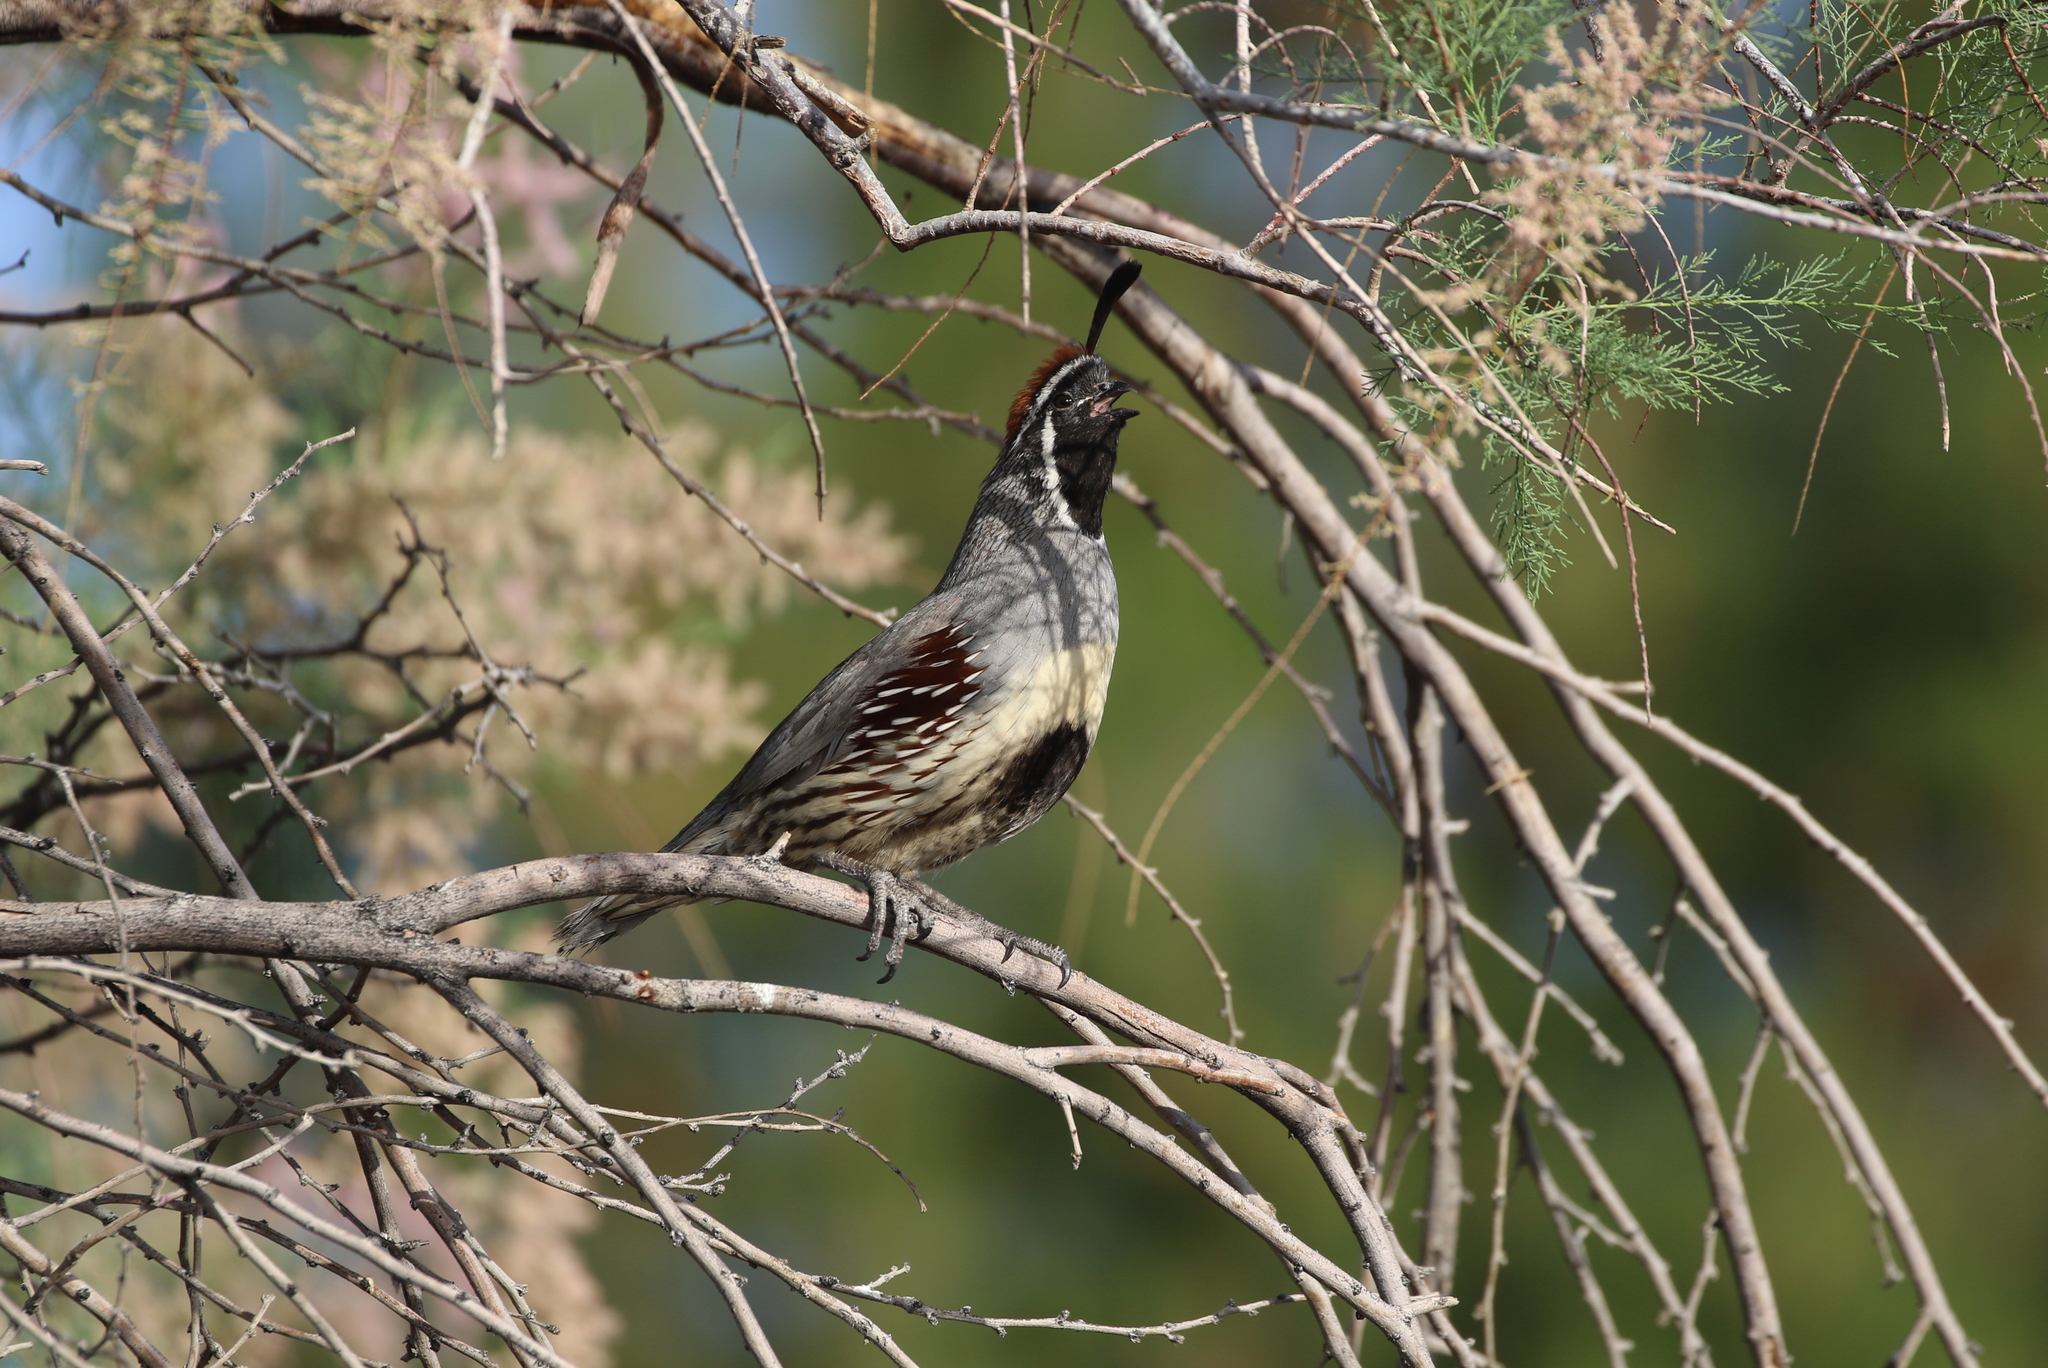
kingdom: Animalia
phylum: Chordata
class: Aves
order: Galliformes
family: Odontophoridae
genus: Callipepla
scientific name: Callipepla gambelii
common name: Gambel's quail
